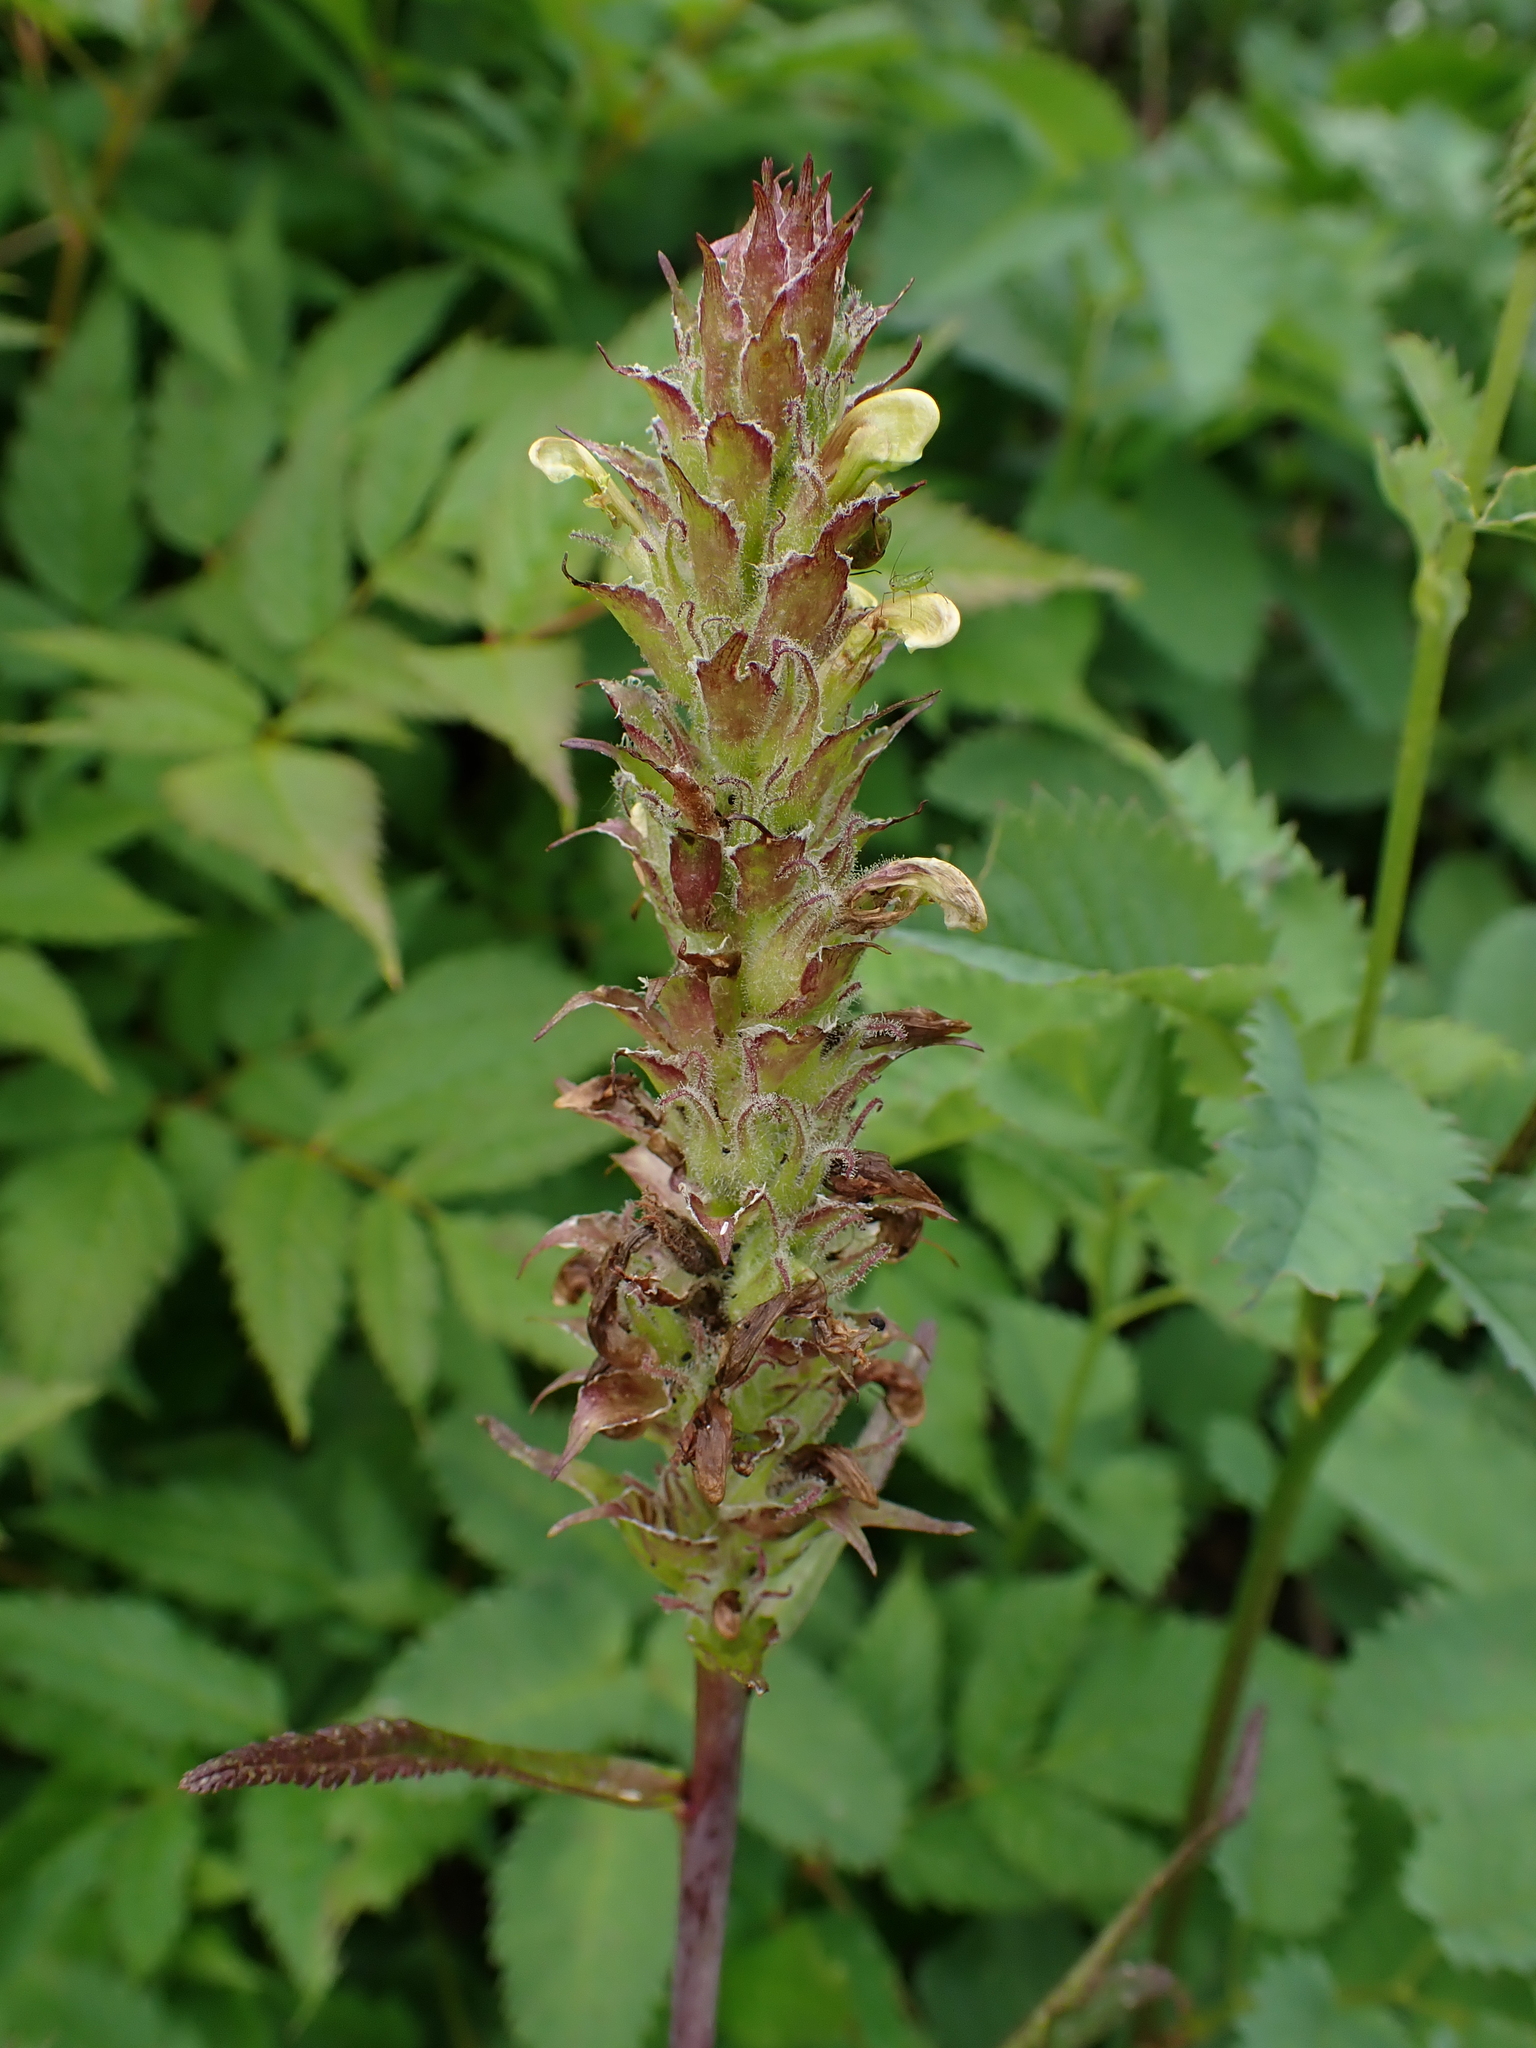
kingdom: Plantae
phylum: Tracheophyta
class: Magnoliopsida
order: Lamiales
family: Orobanchaceae
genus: Pedicularis
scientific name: Pedicularis bracteosa
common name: Bracted lousewort
